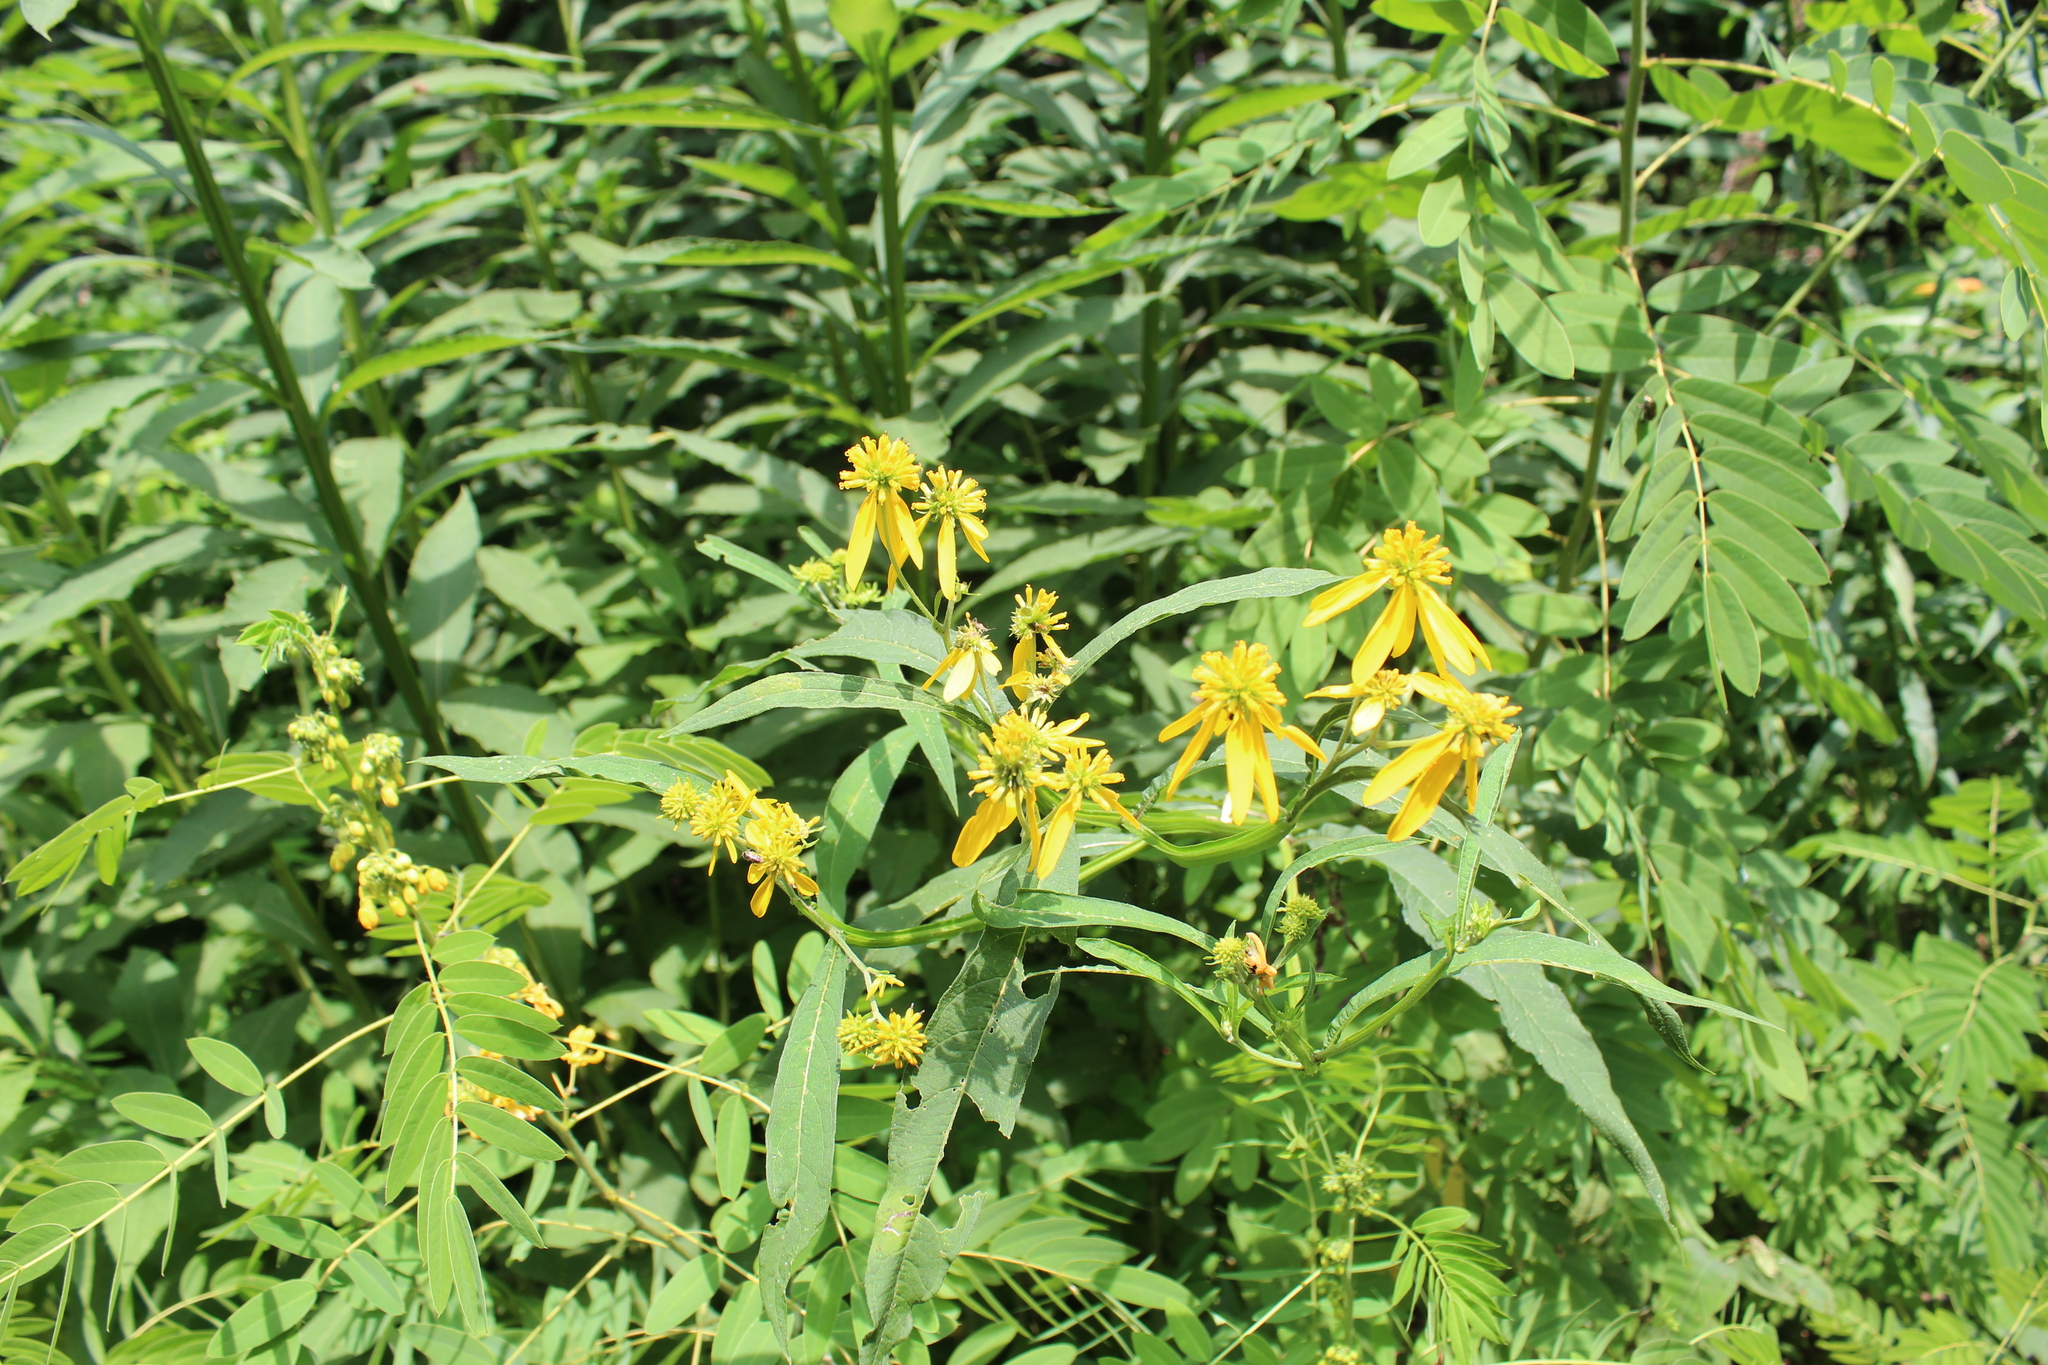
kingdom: Plantae
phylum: Tracheophyta
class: Magnoliopsida
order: Asterales
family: Asteraceae
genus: Verbesina
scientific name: Verbesina alternifolia
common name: Wingstem
